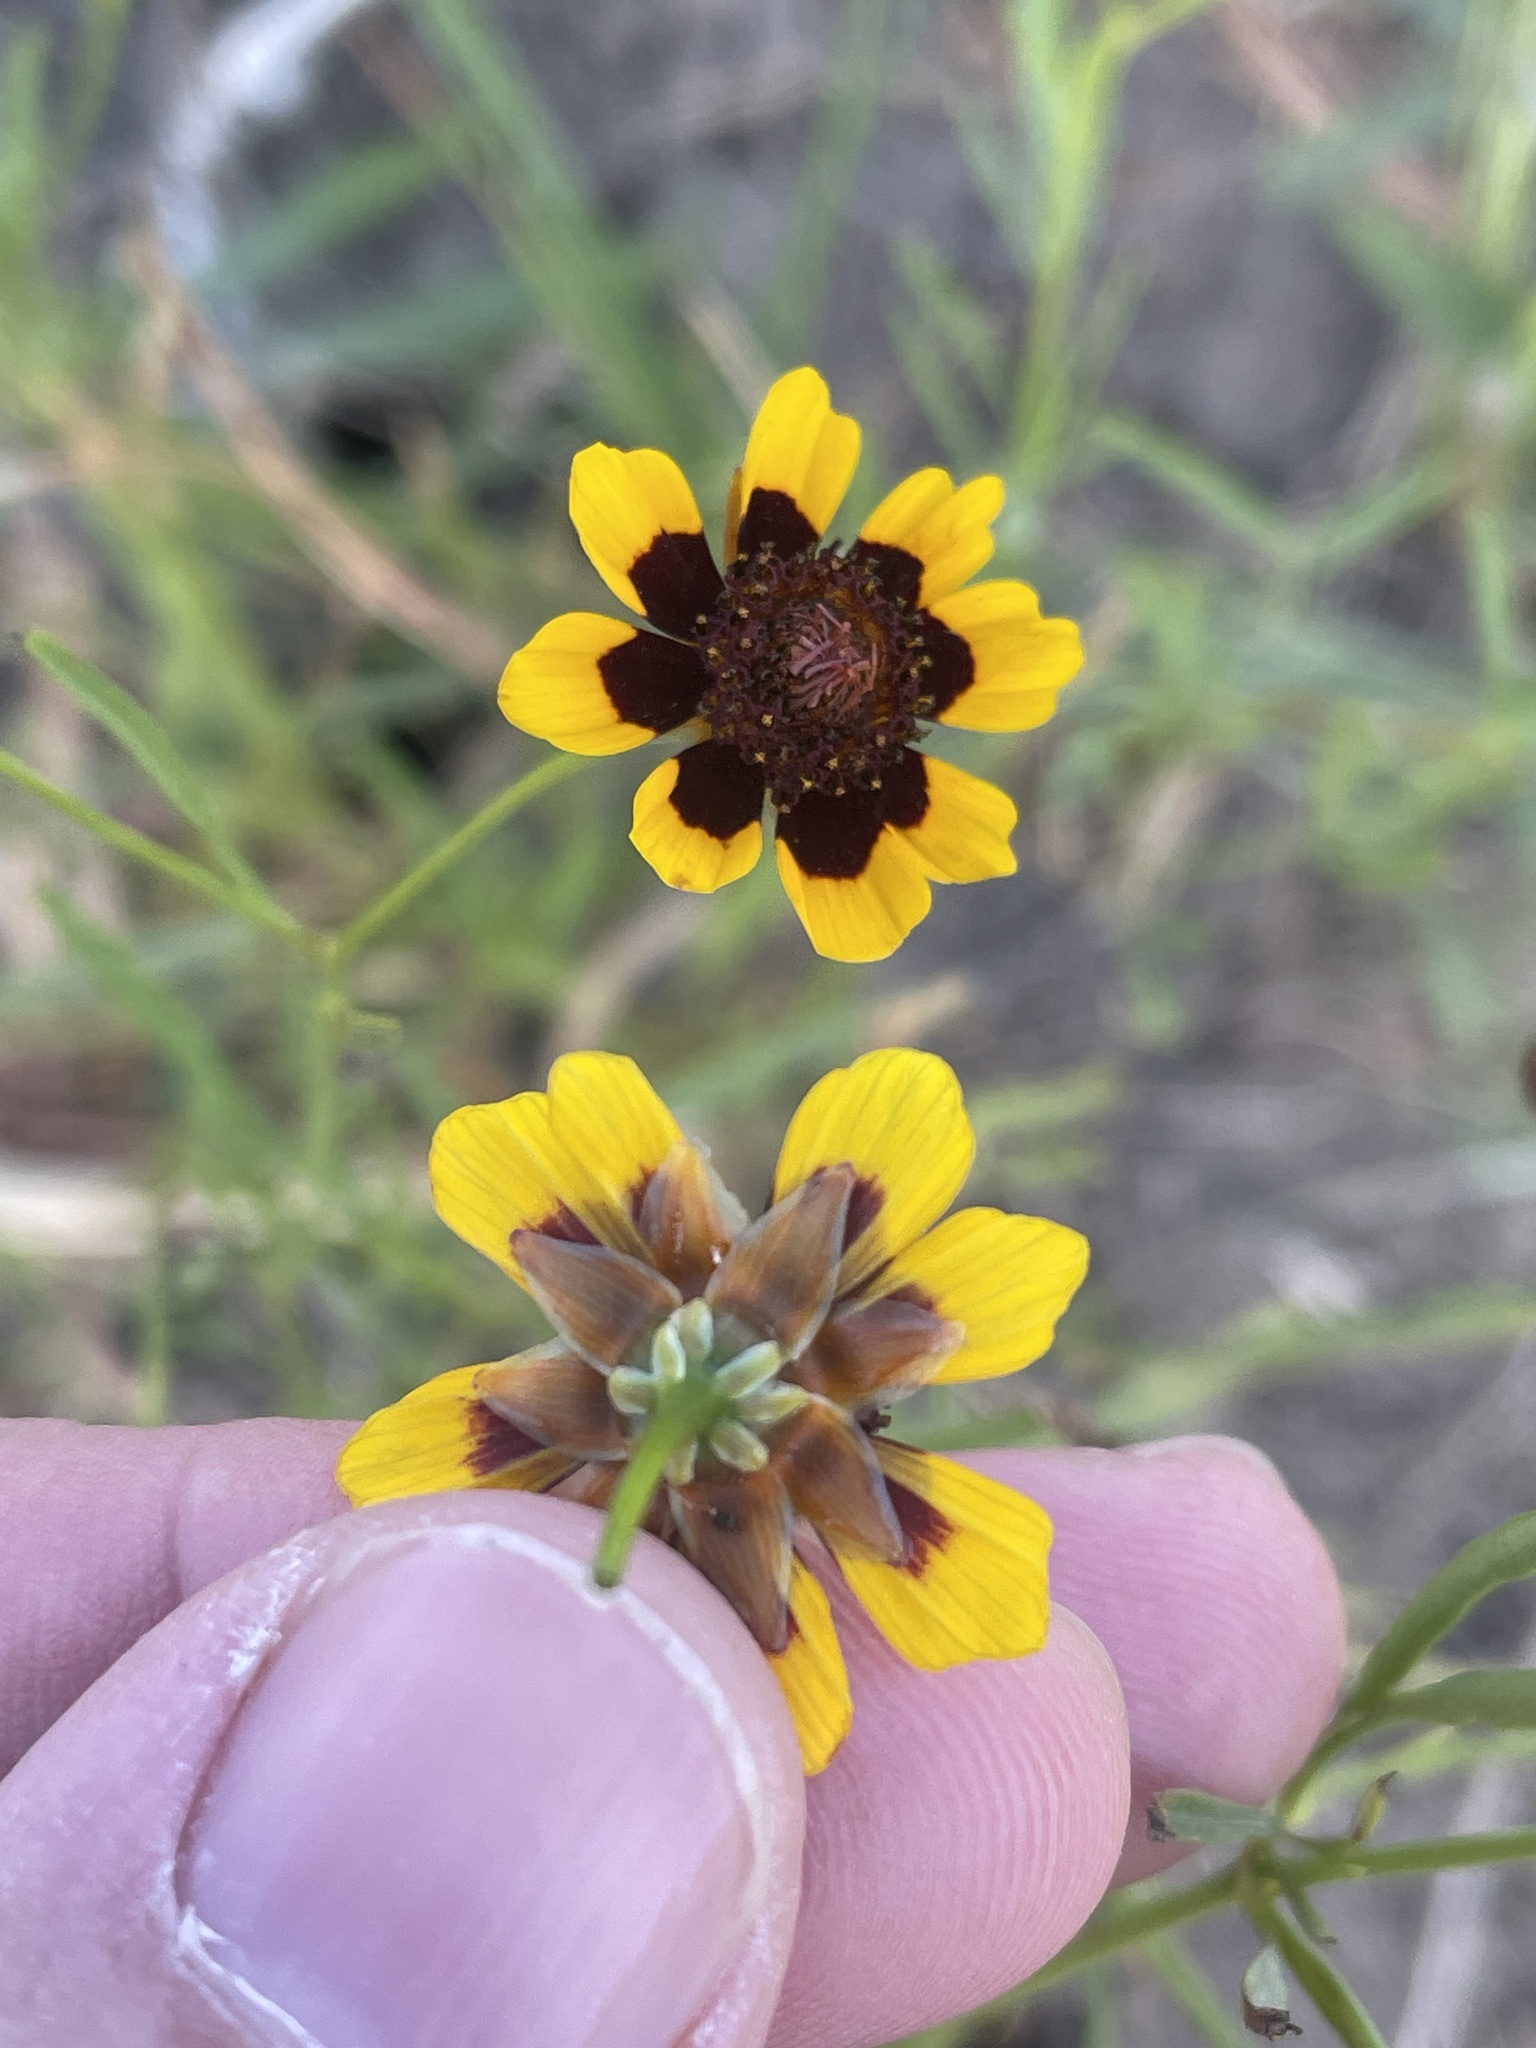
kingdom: Plantae
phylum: Tracheophyta
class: Magnoliopsida
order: Asterales
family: Asteraceae
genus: Coreopsis
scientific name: Coreopsis tinctoria
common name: Garden tickseed
